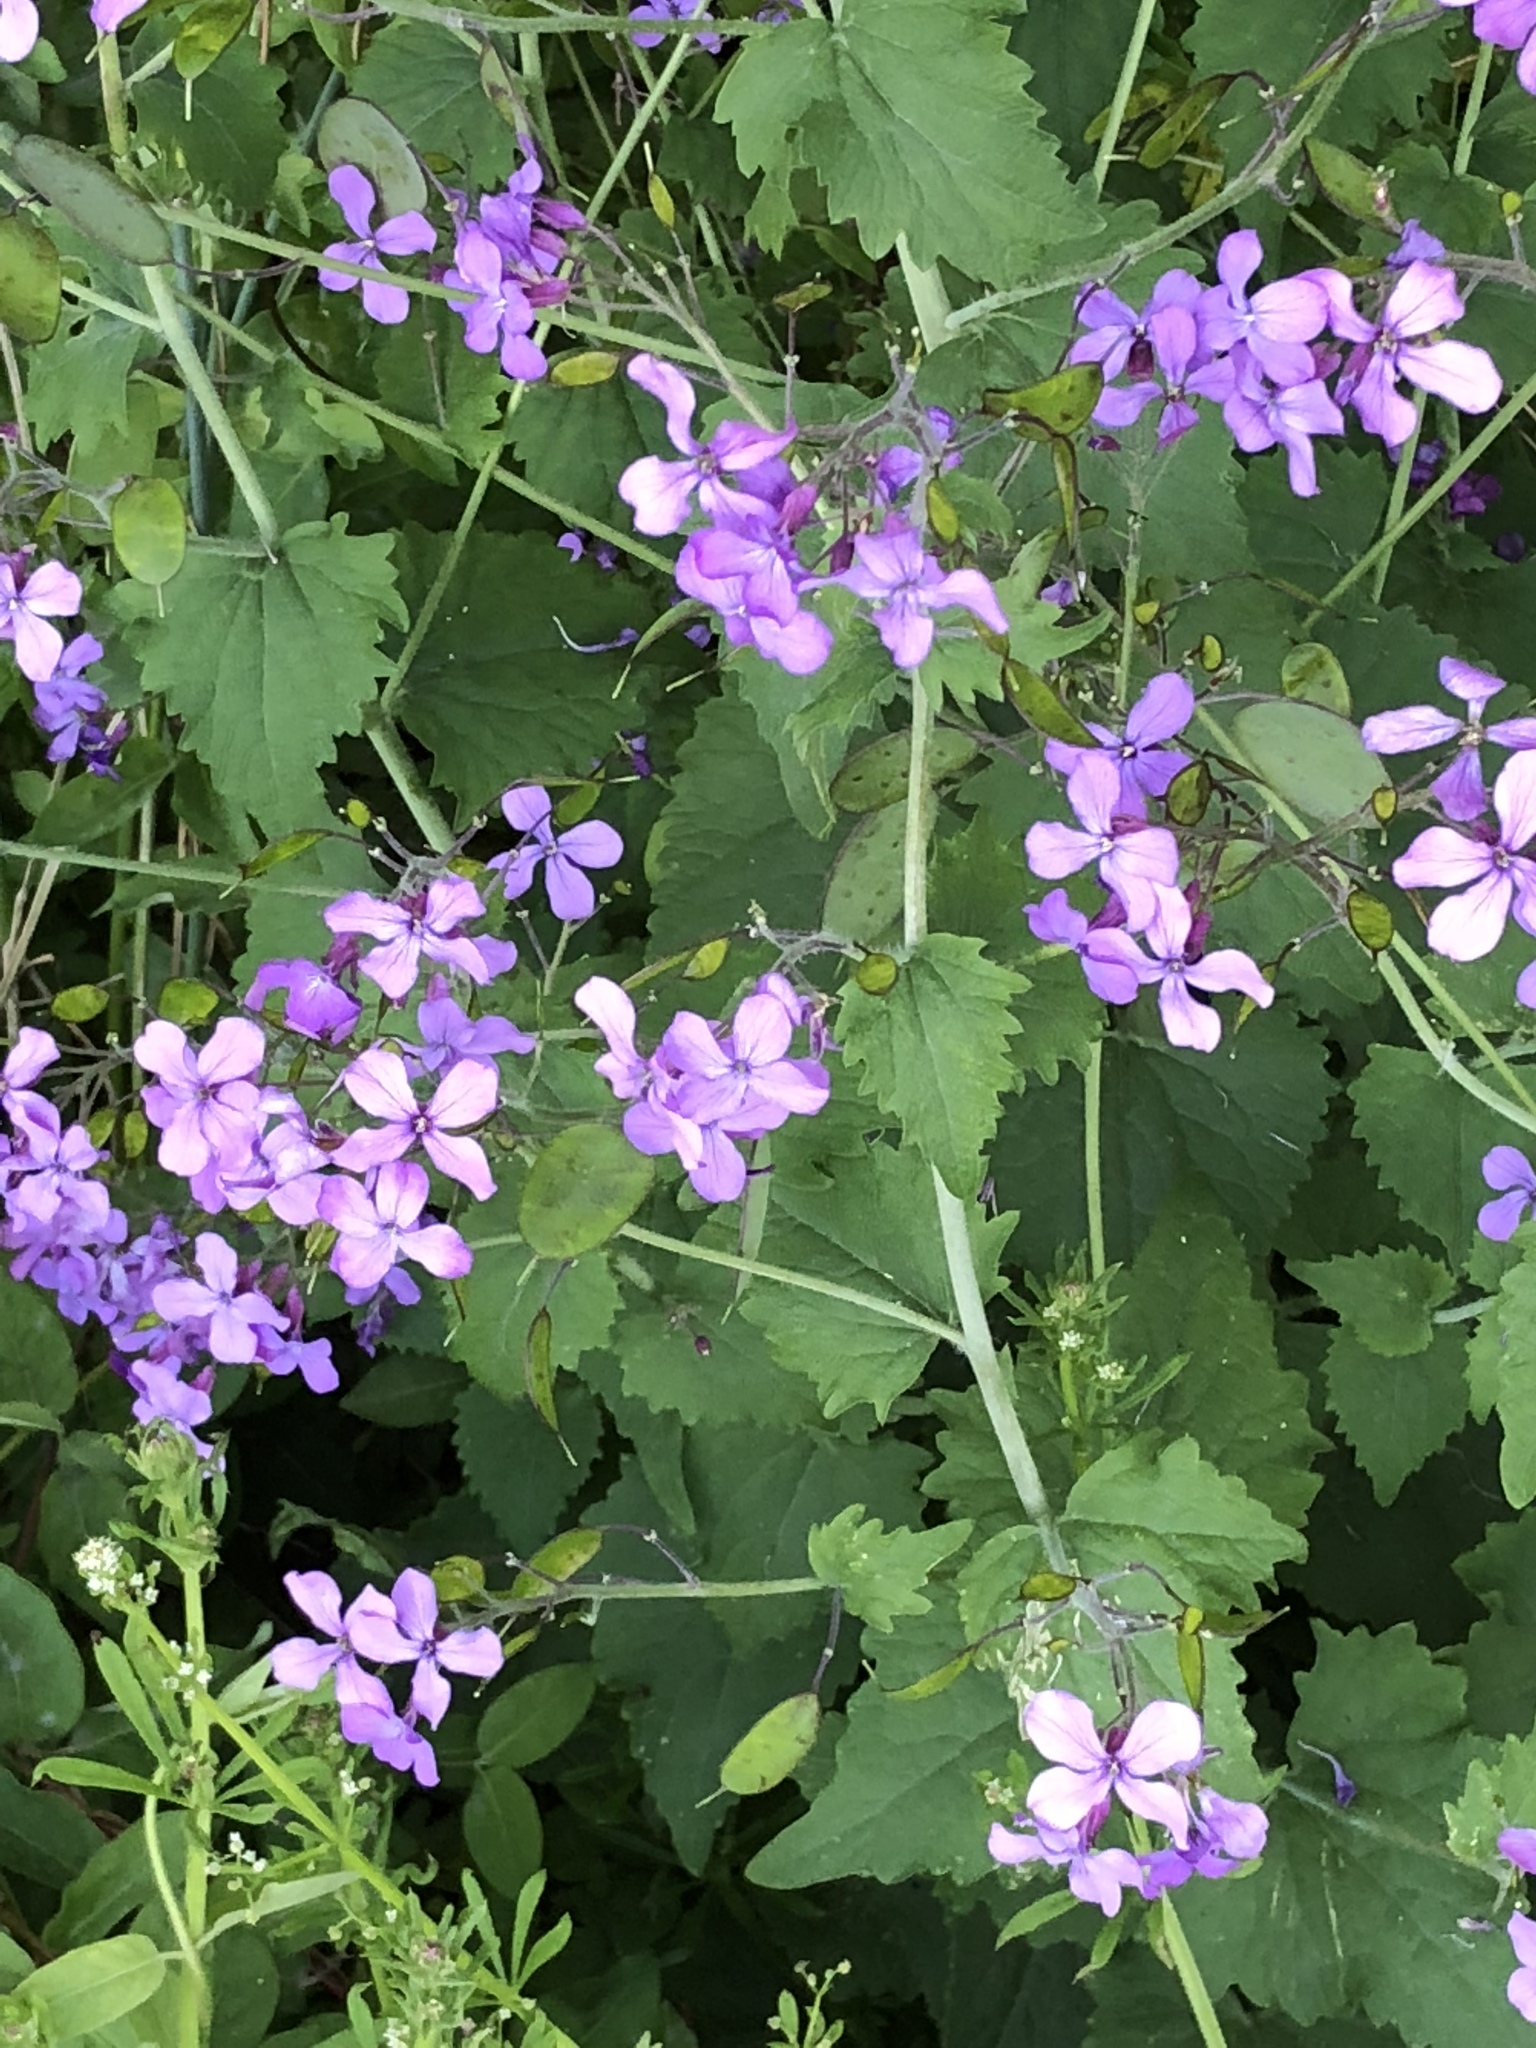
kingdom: Plantae
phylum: Tracheophyta
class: Magnoliopsida
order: Brassicales
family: Brassicaceae
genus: Lunaria
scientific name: Lunaria annua
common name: Honesty
